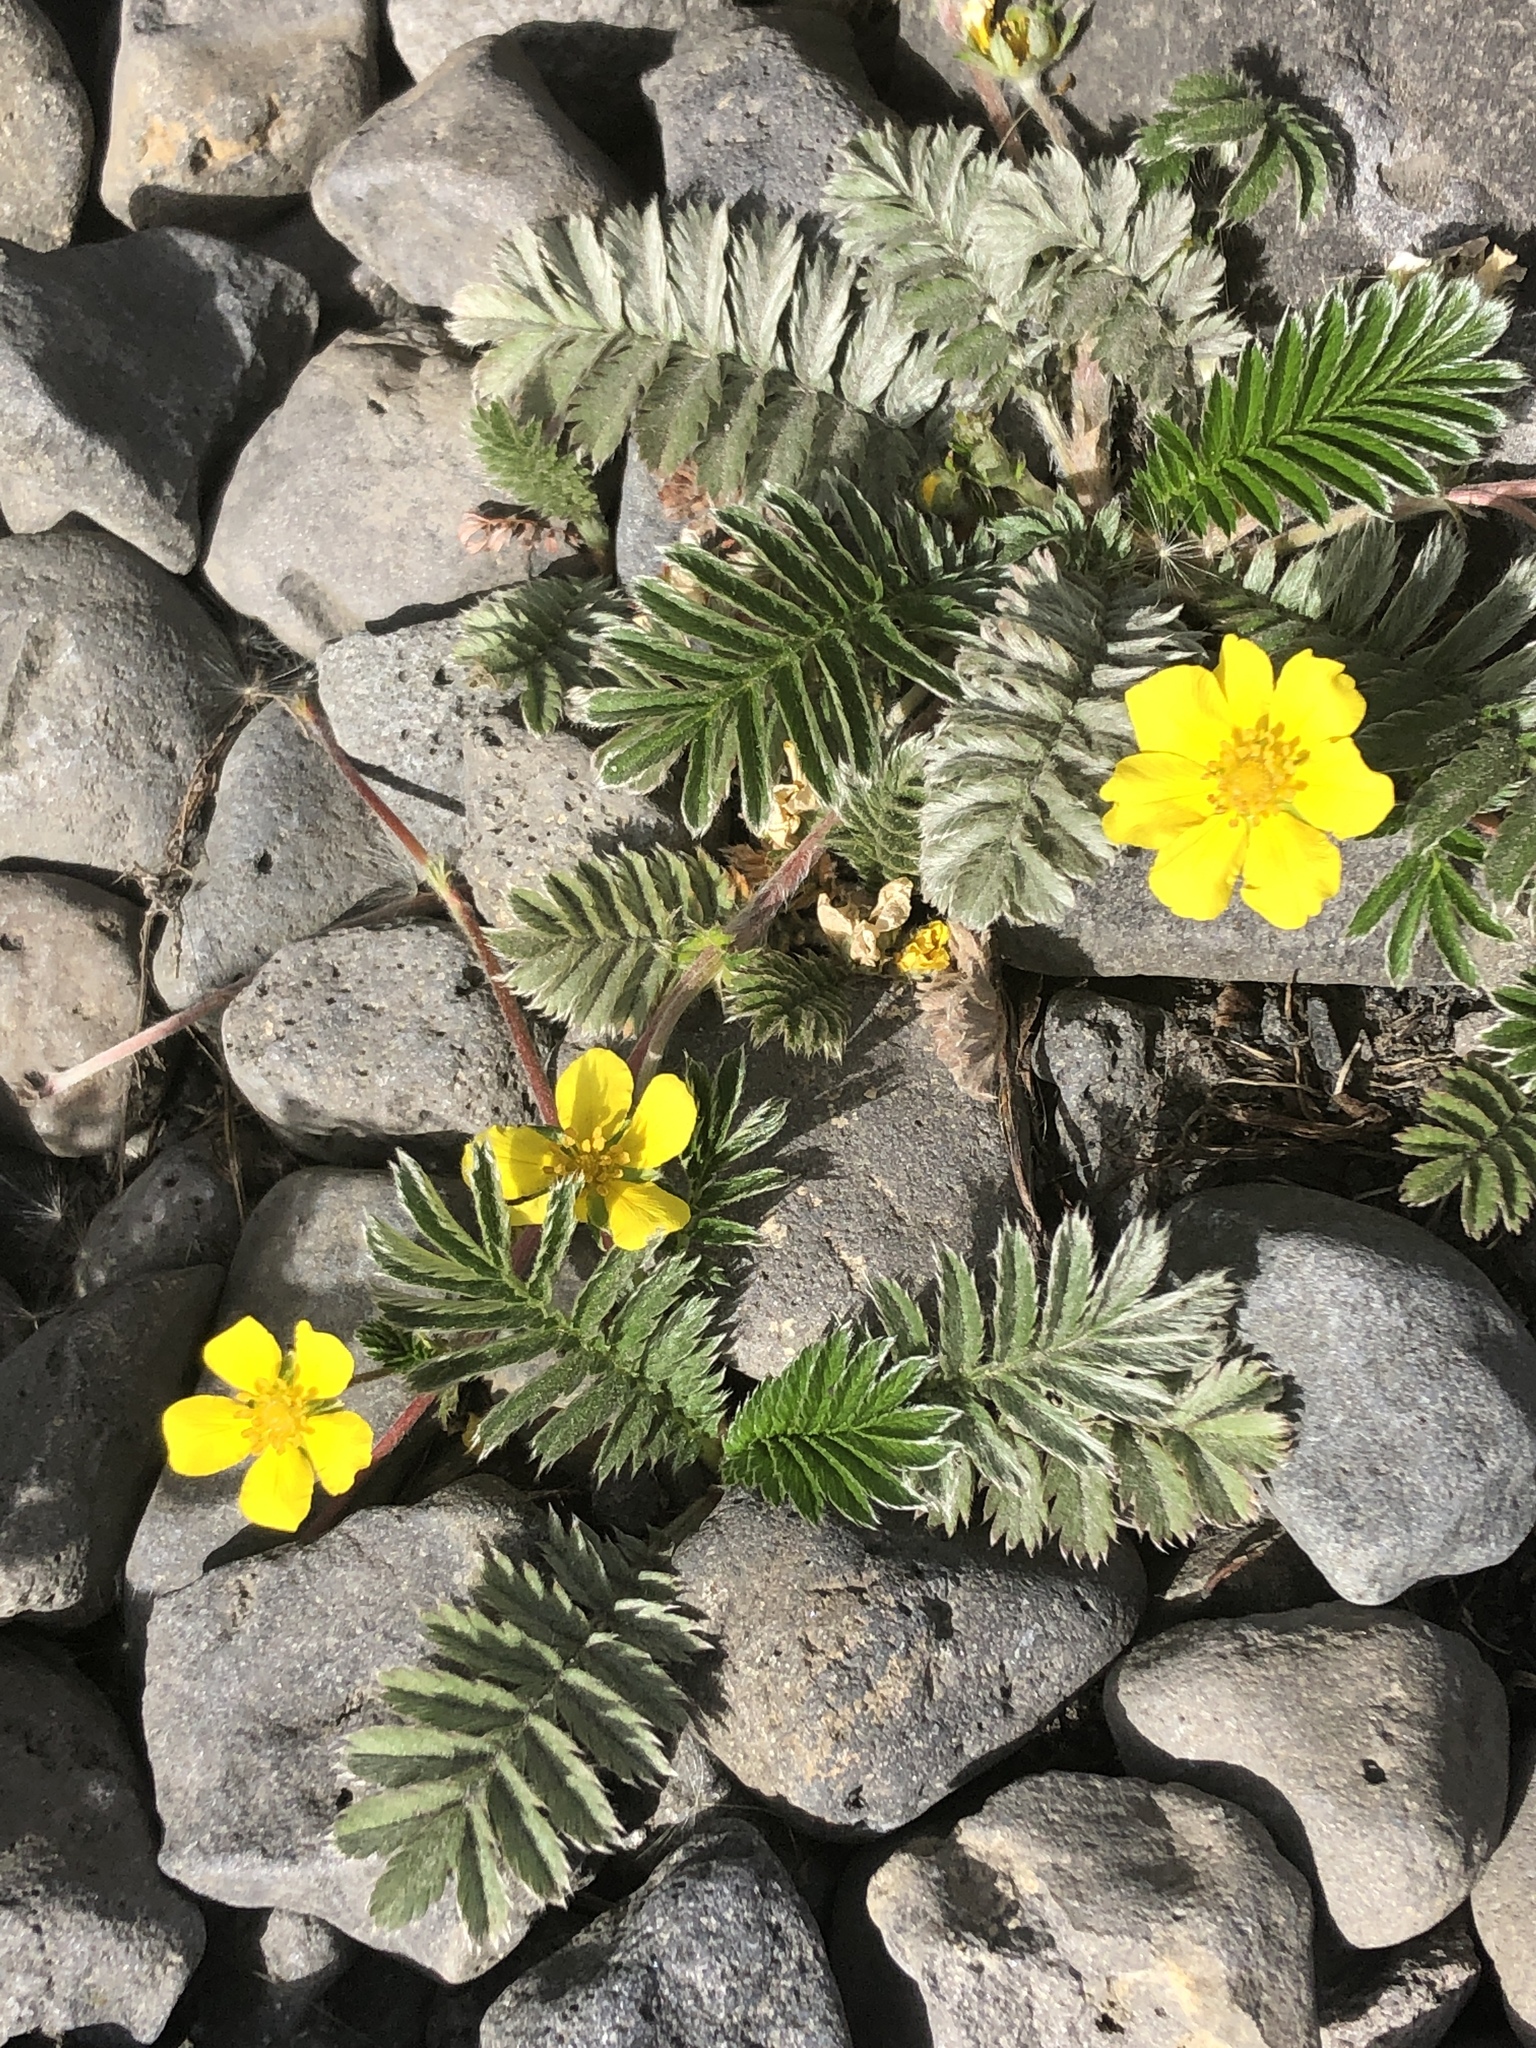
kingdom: Plantae
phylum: Tracheophyta
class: Magnoliopsida
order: Rosales
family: Rosaceae
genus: Argentina
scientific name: Argentina anserina
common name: Common silverweed
